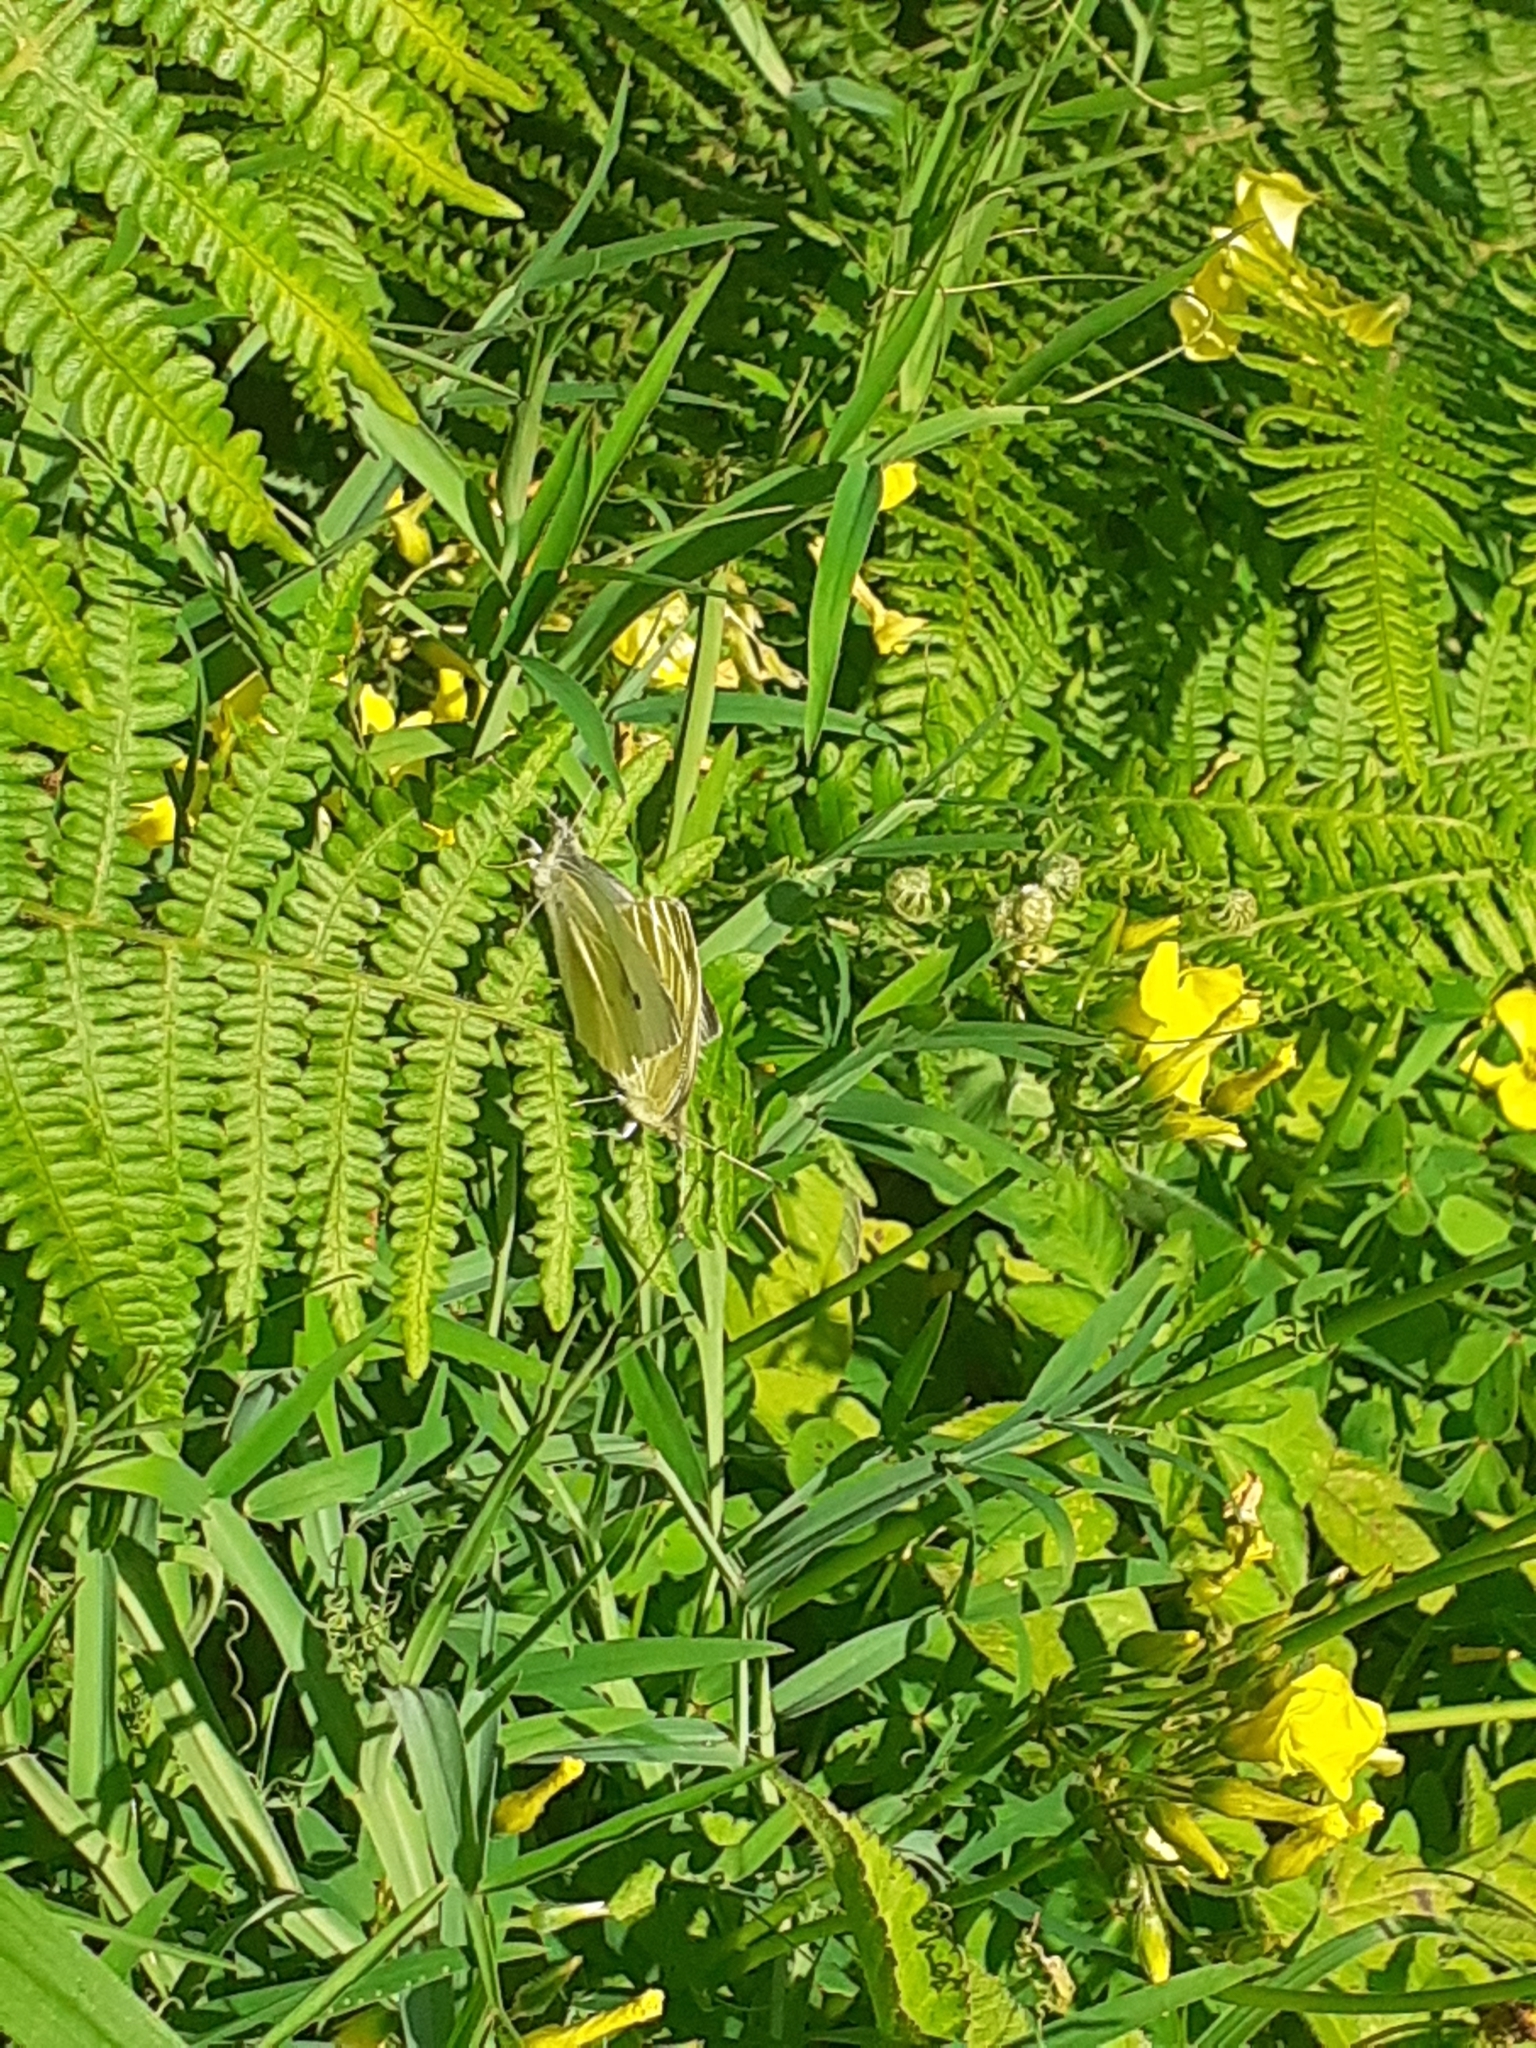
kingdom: Animalia
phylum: Arthropoda
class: Insecta
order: Lepidoptera
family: Pieridae
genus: Pieris
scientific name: Pieris rapae
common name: Small white
